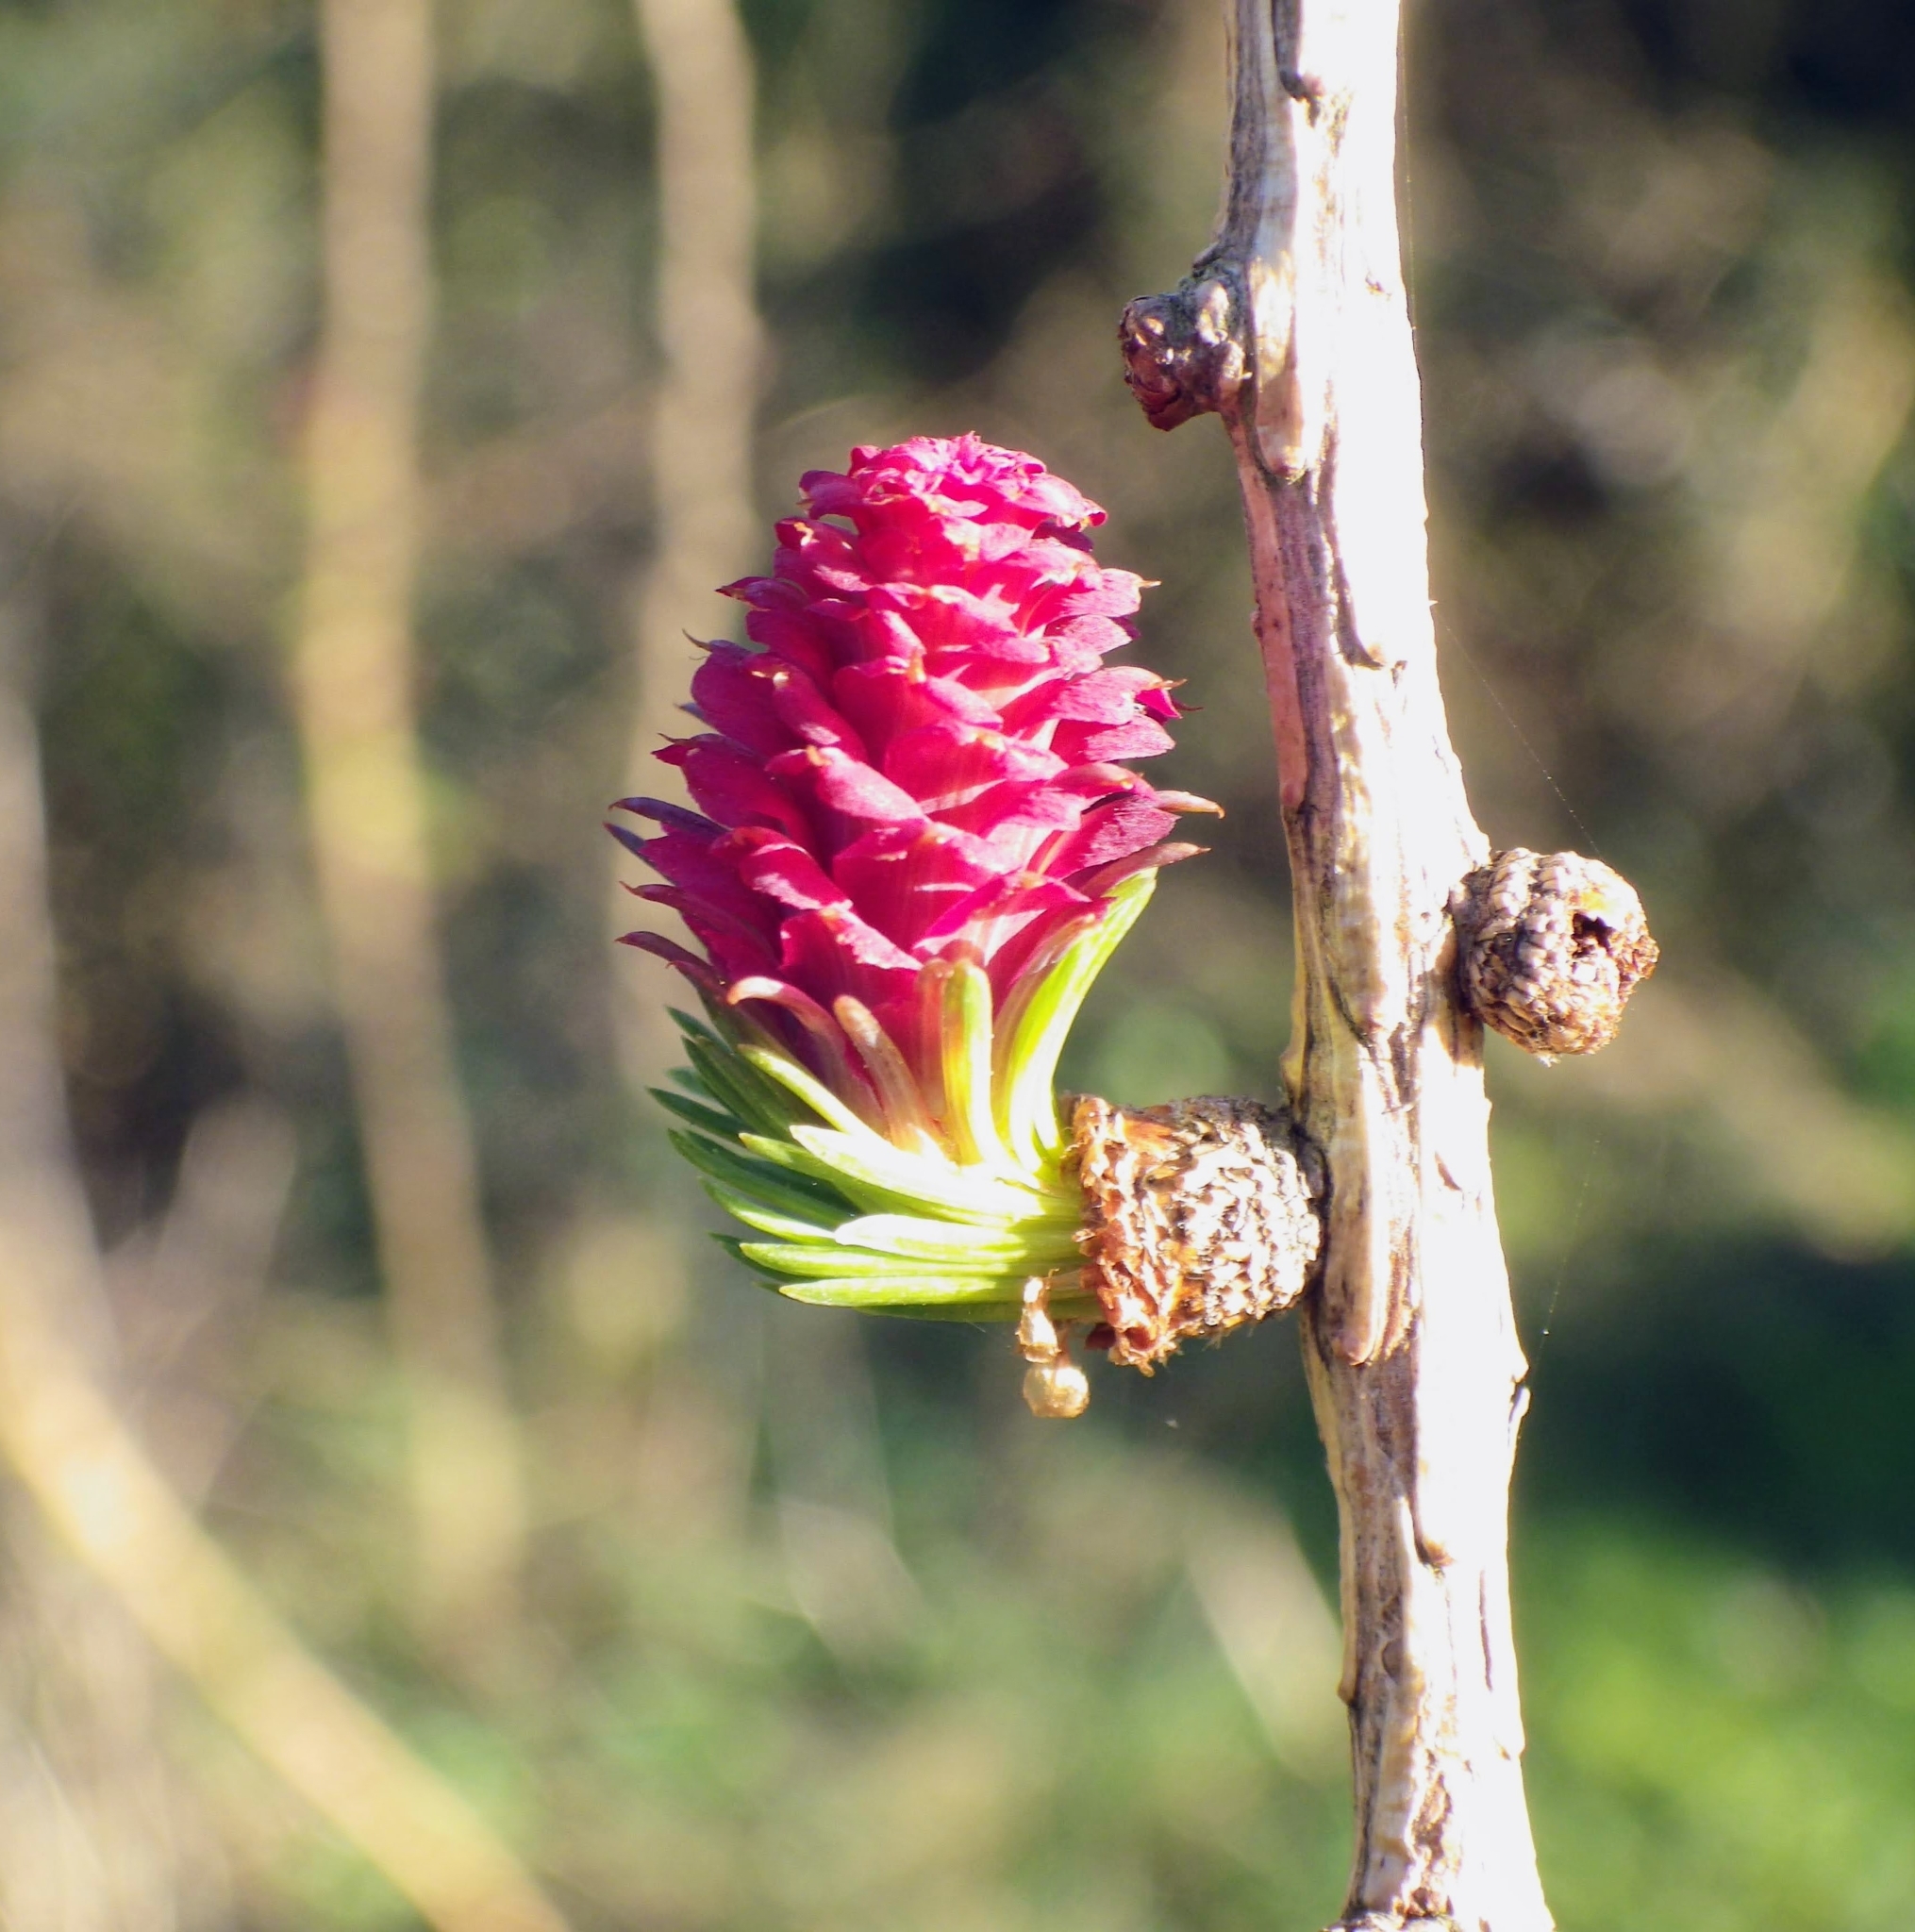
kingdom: Plantae
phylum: Tracheophyta
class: Pinopsida
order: Pinales
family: Pinaceae
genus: Larix
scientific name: Larix decidua
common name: European larch
